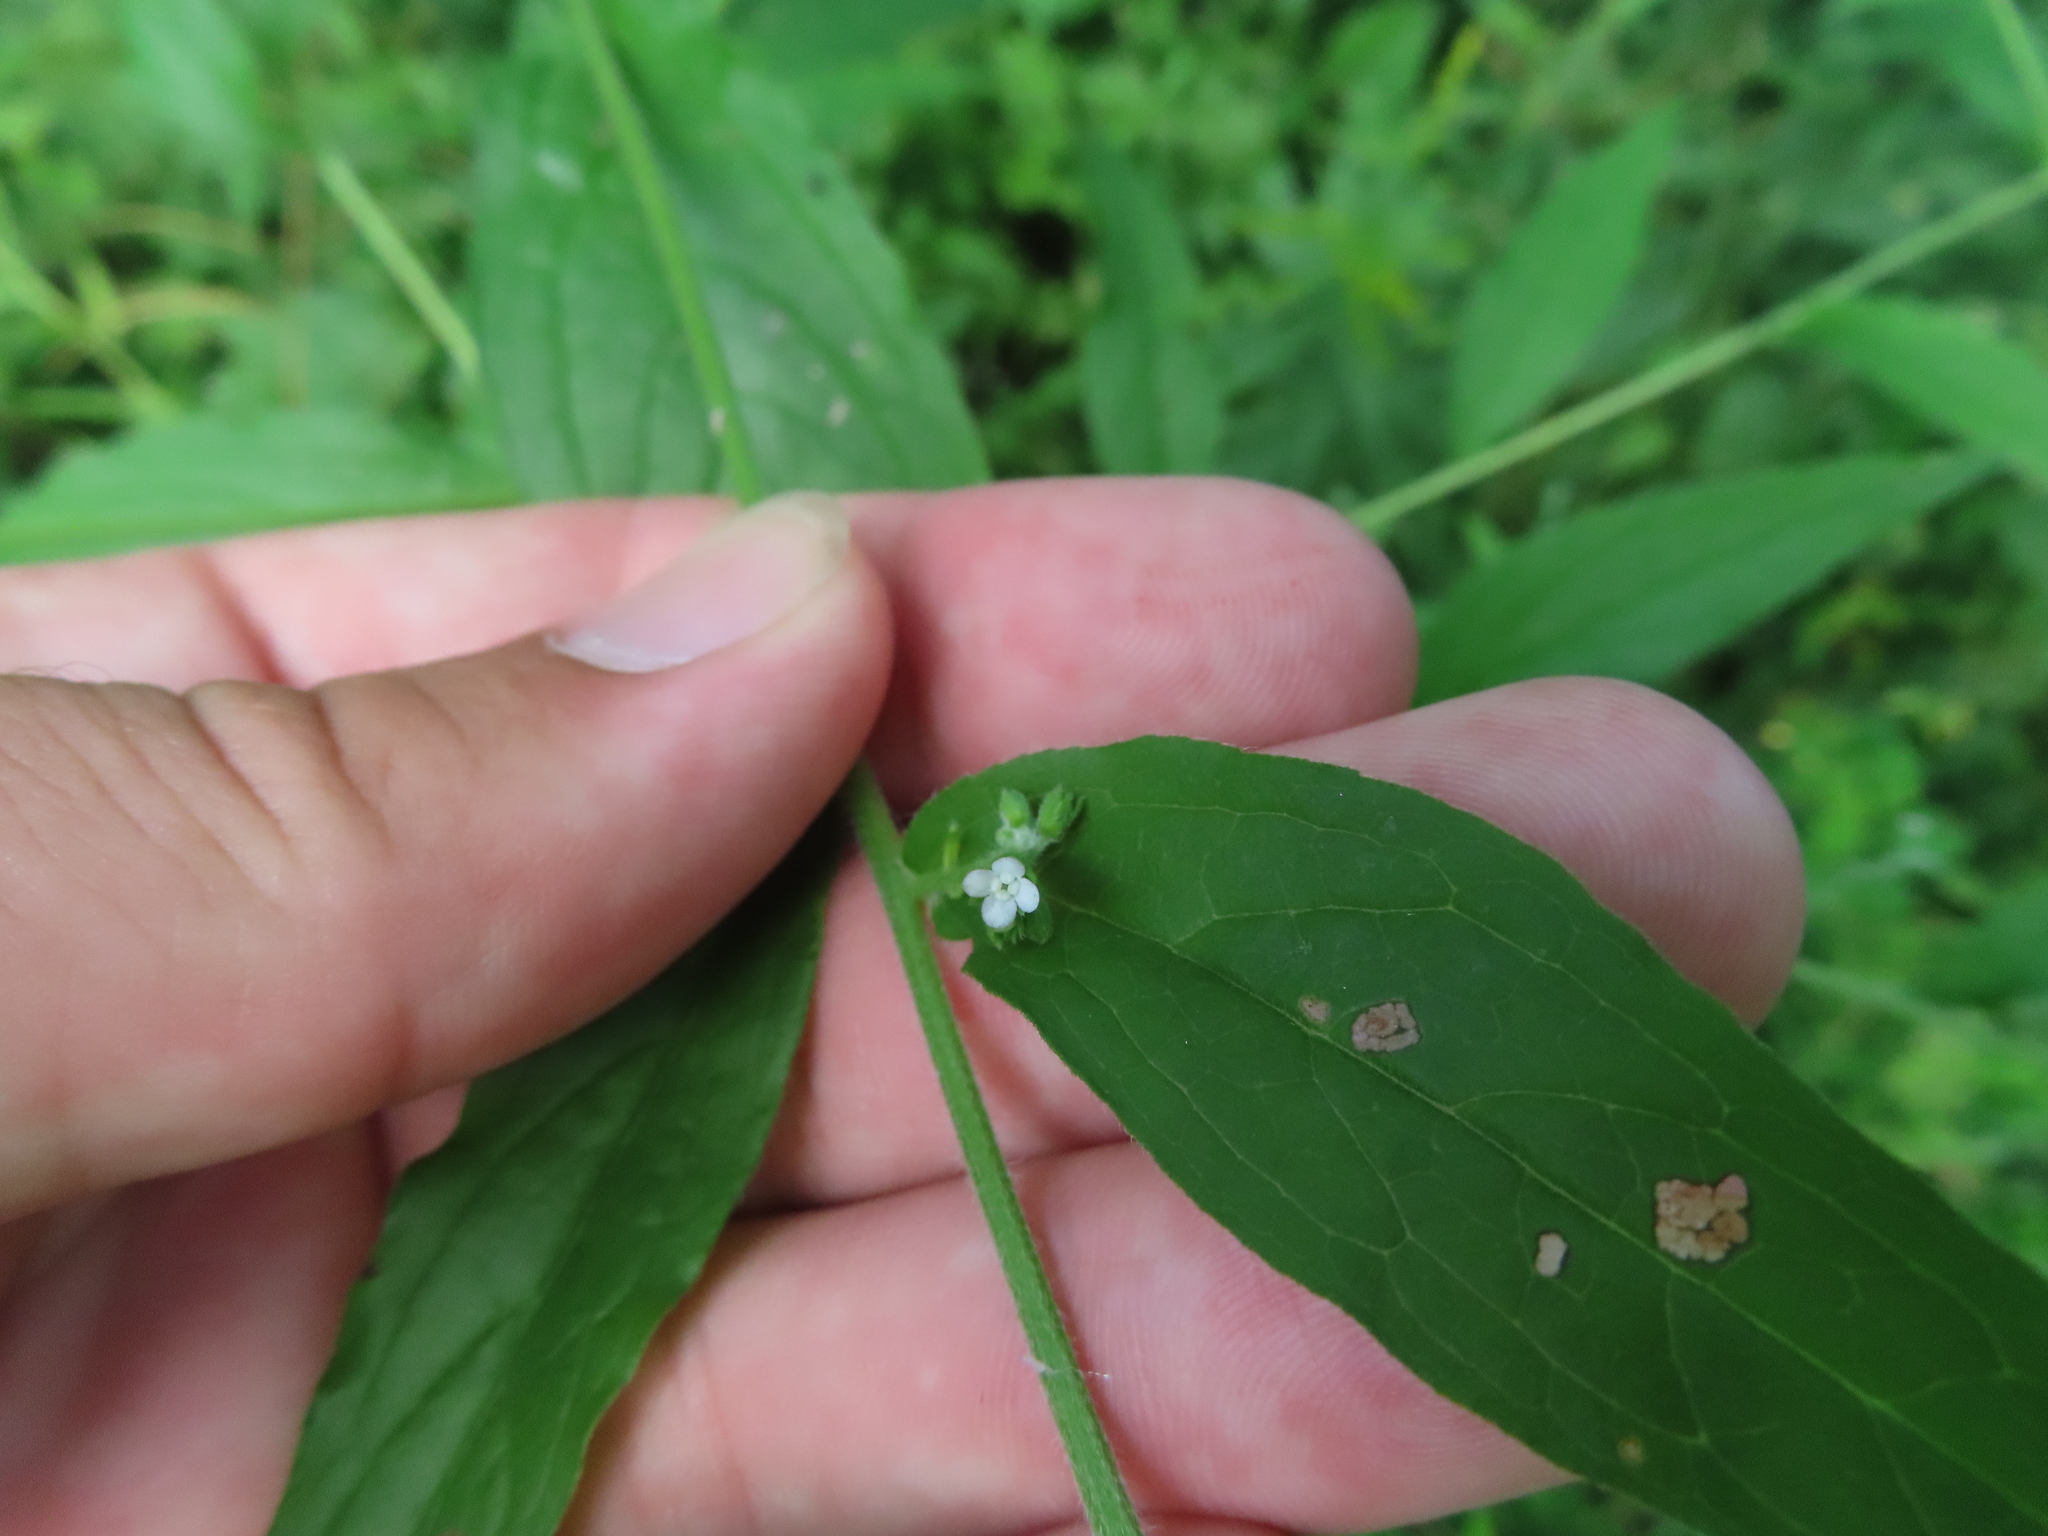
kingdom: Plantae
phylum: Tracheophyta
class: Magnoliopsida
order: Boraginales
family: Boraginaceae
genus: Hackelia
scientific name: Hackelia virginiana
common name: Beggar's-lice
